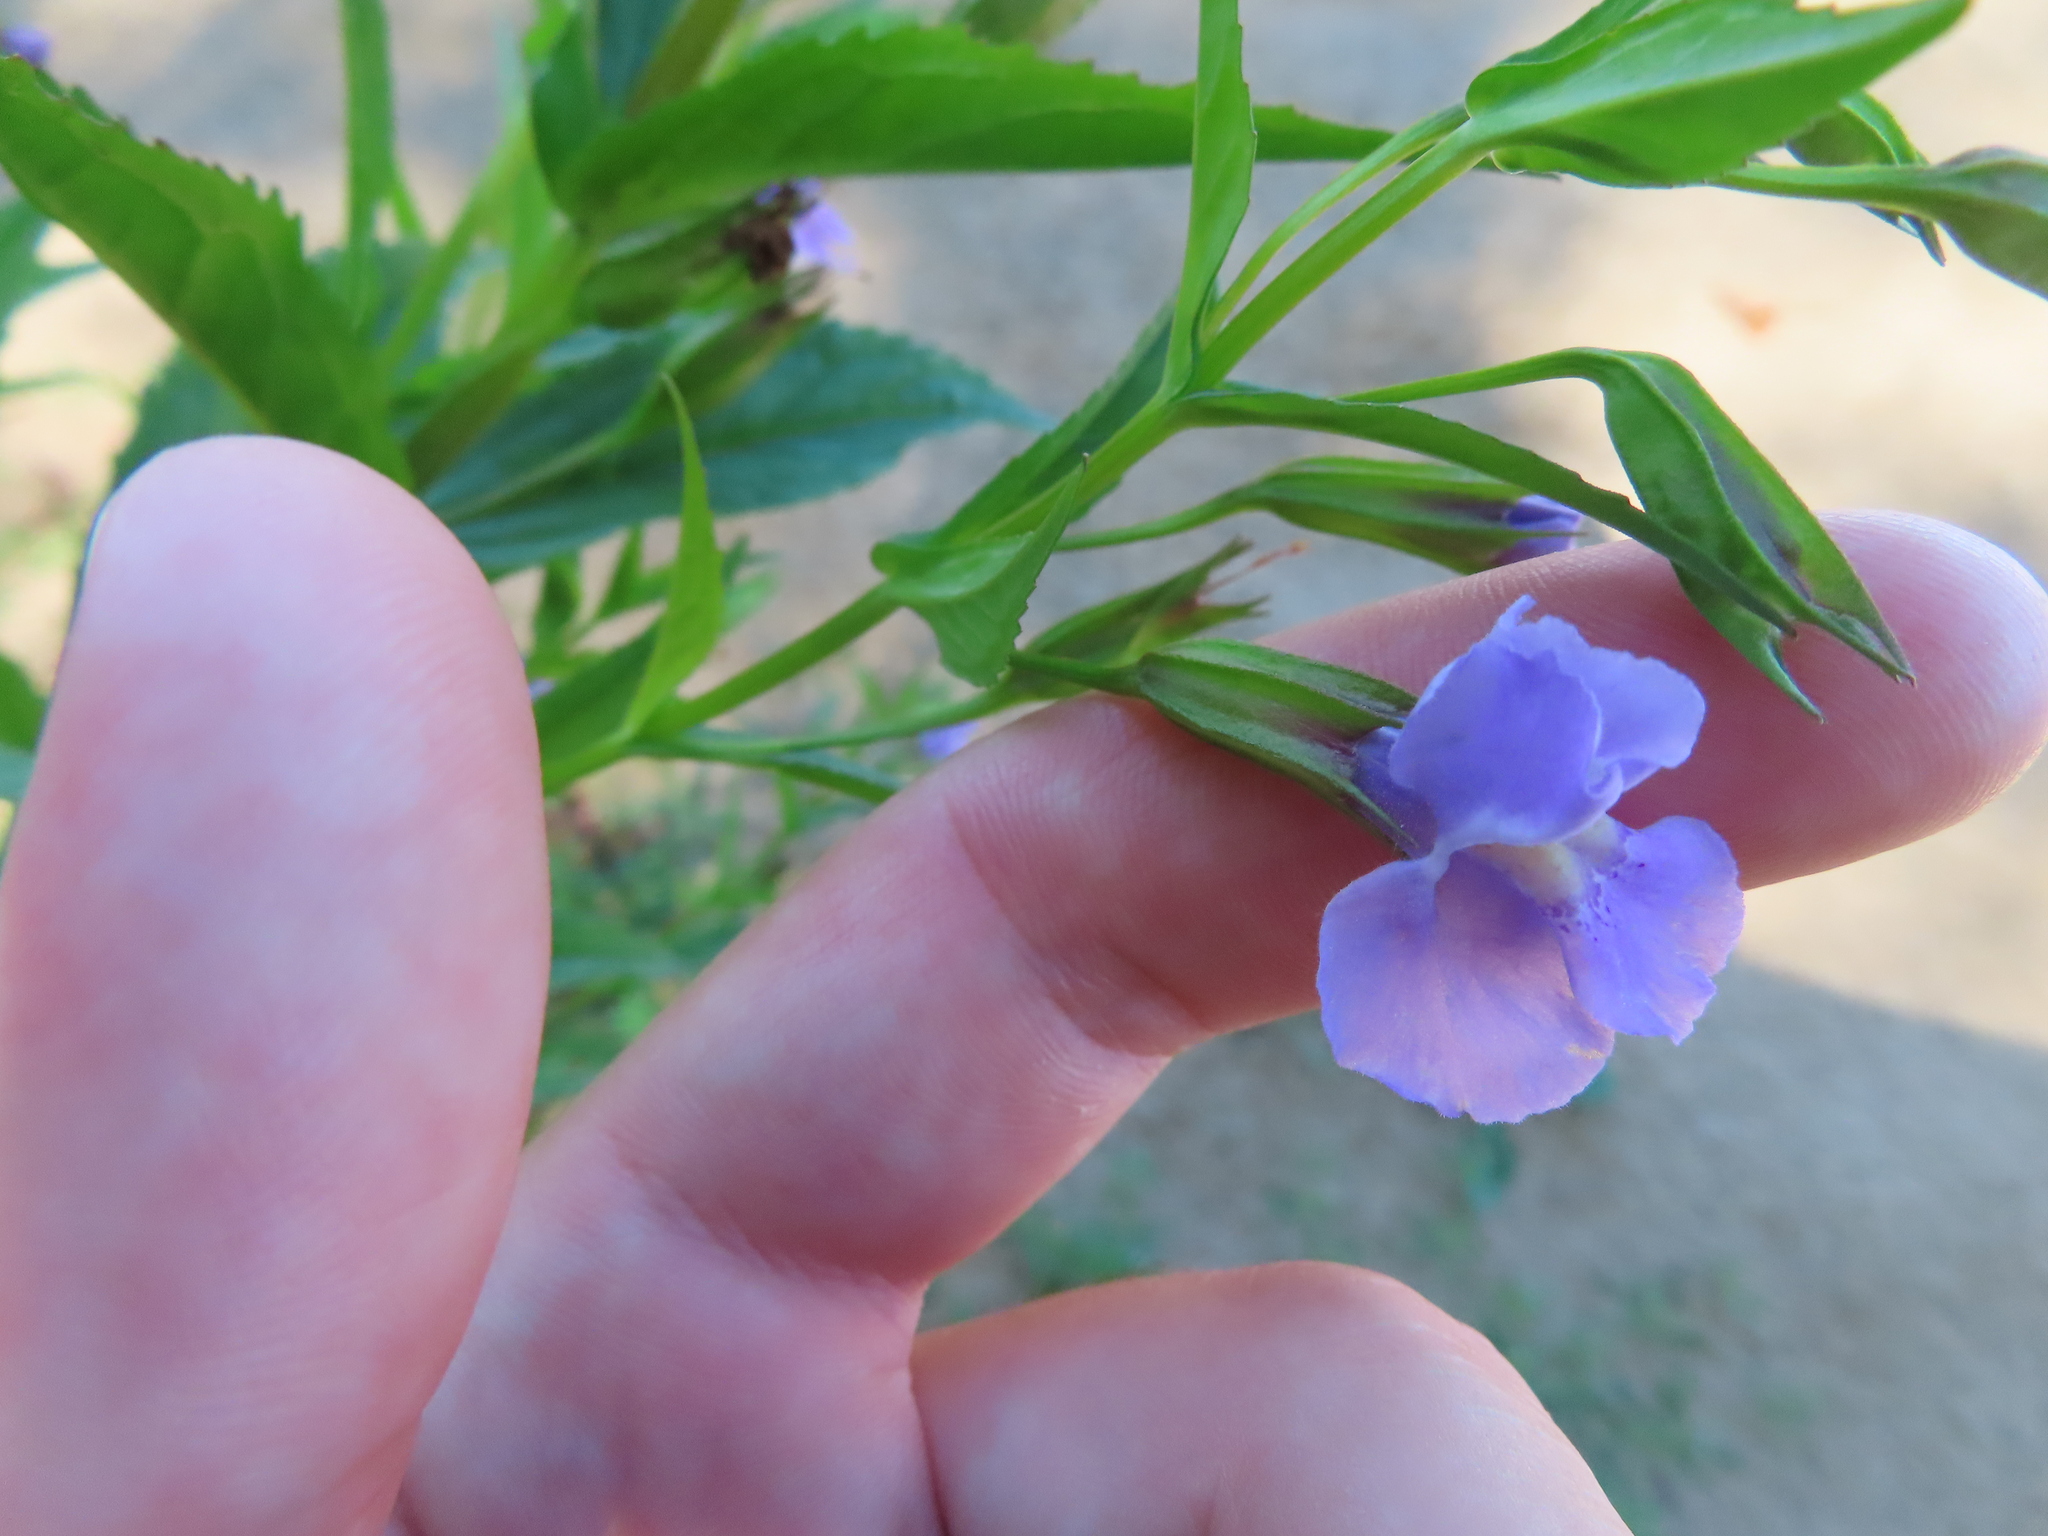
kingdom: Plantae
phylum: Tracheophyta
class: Magnoliopsida
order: Lamiales
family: Phrymaceae
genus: Mimulus
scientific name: Mimulus ringens
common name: Allegheny monkeyflower
